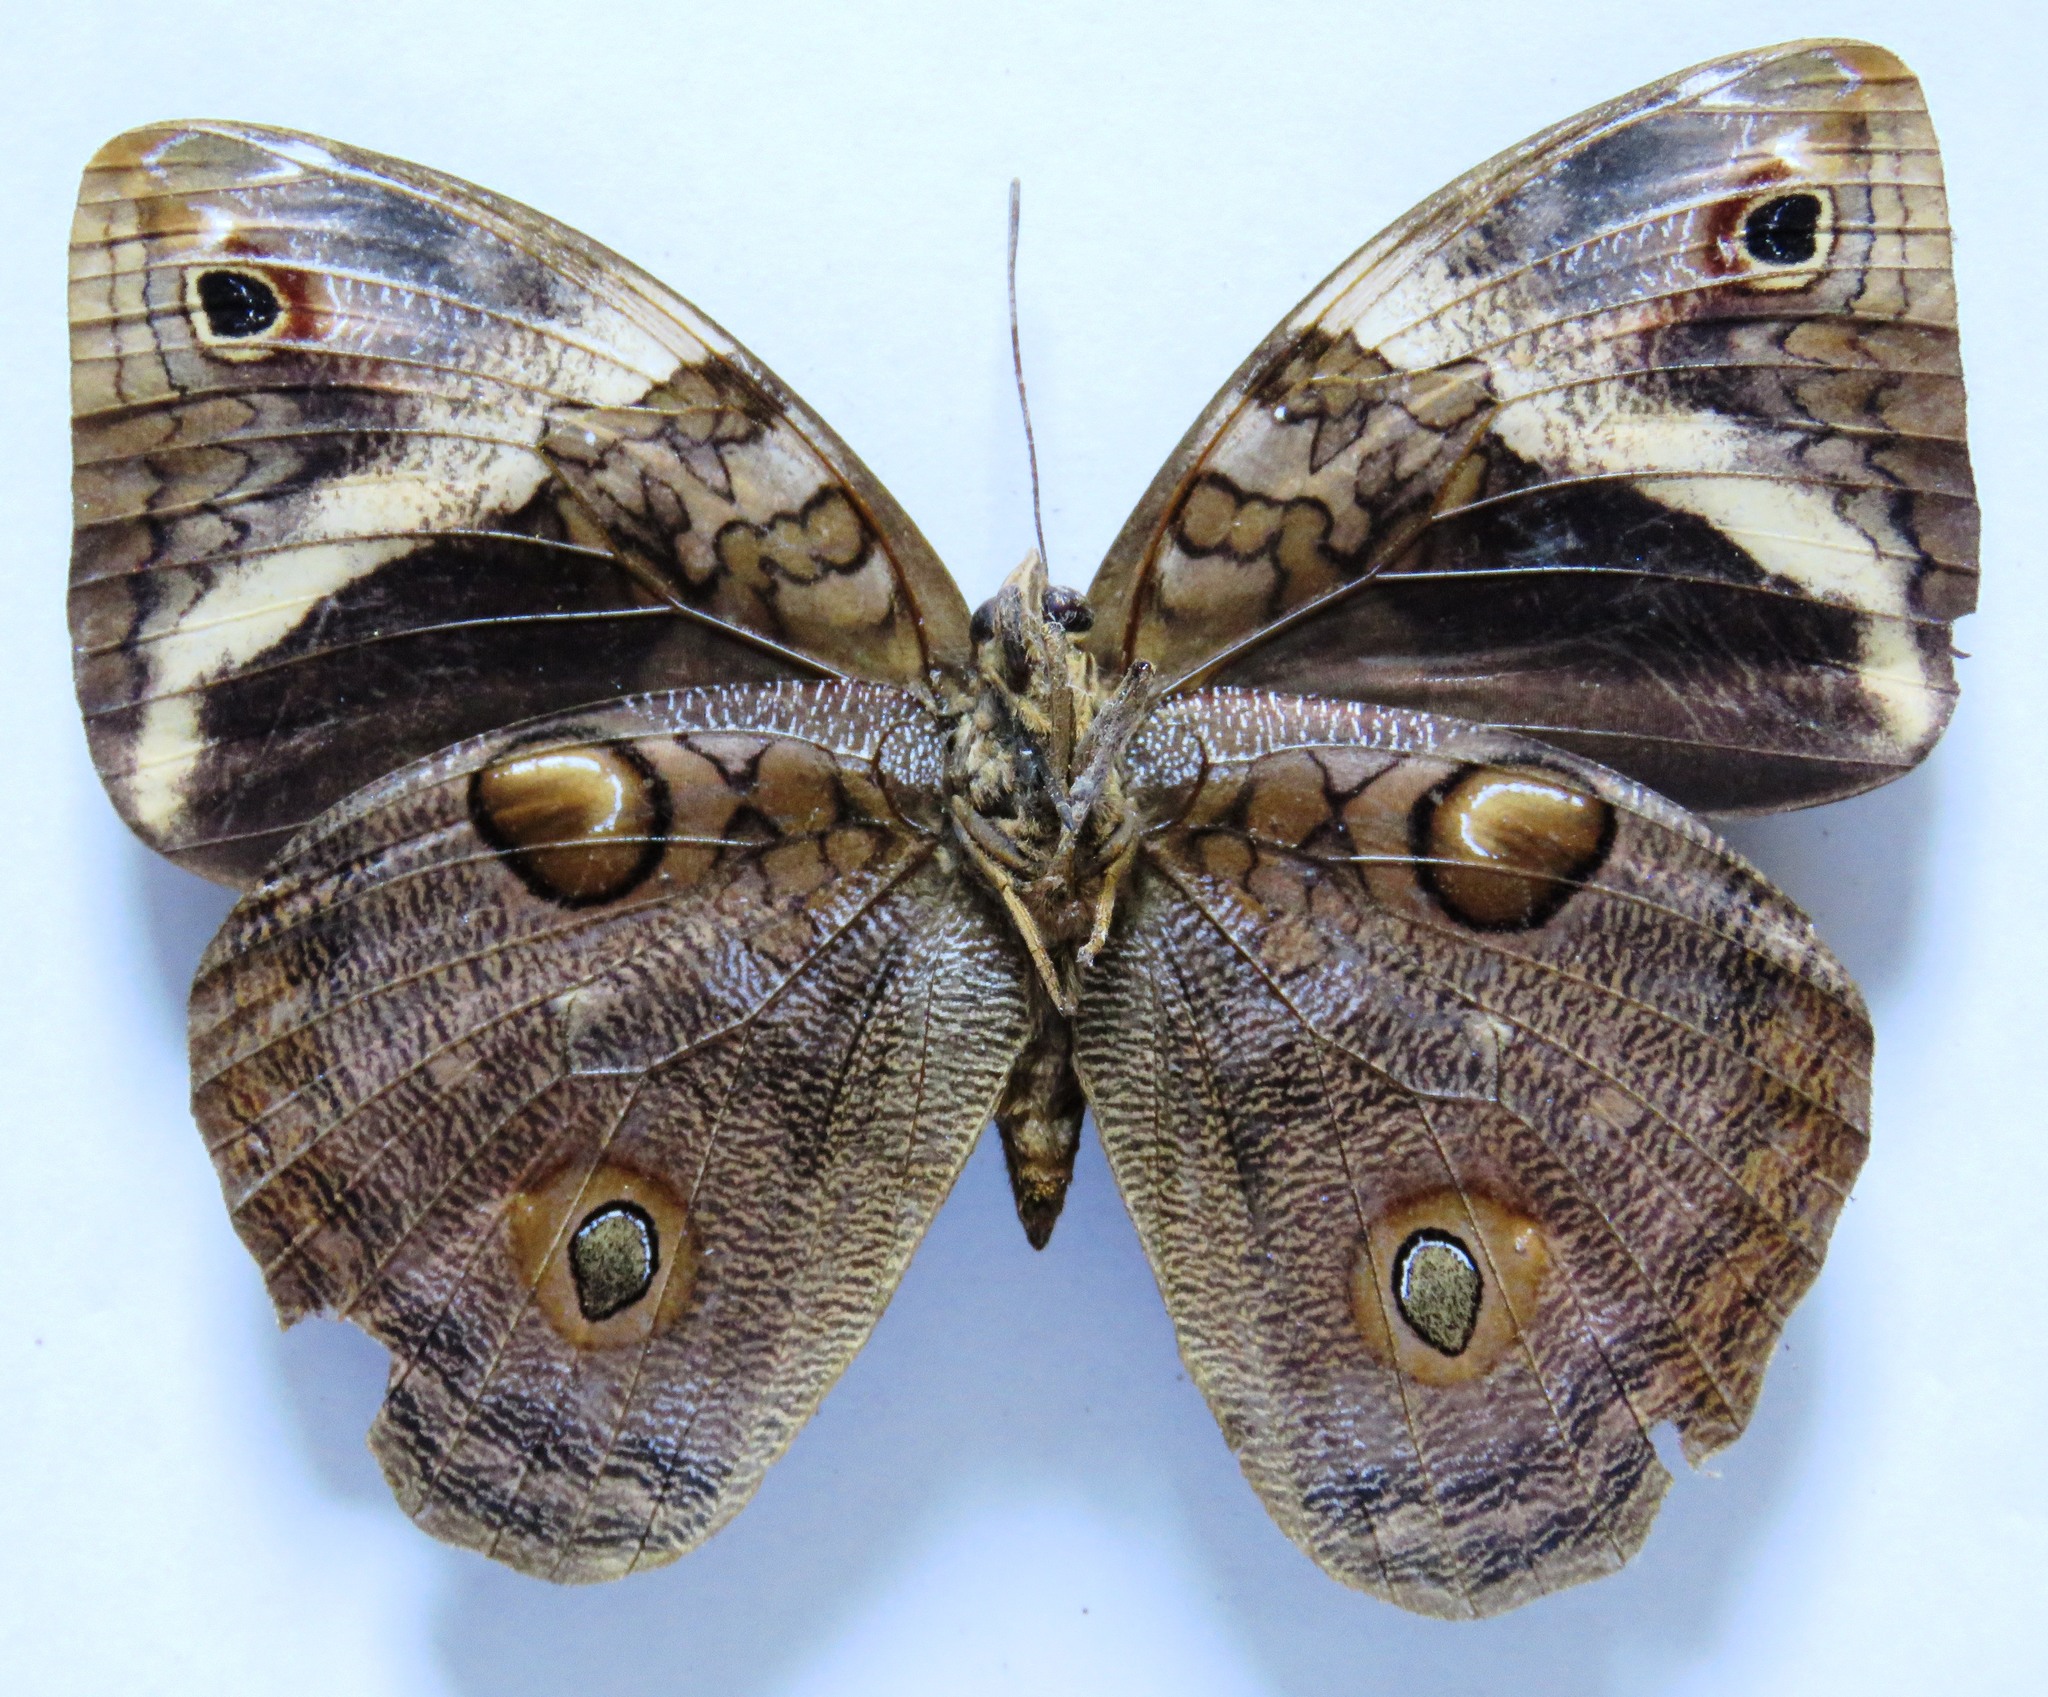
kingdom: Animalia
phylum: Arthropoda
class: Insecta
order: Lepidoptera
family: Nymphalidae
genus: Opsiphanes
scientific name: Opsiphanes cassiae
